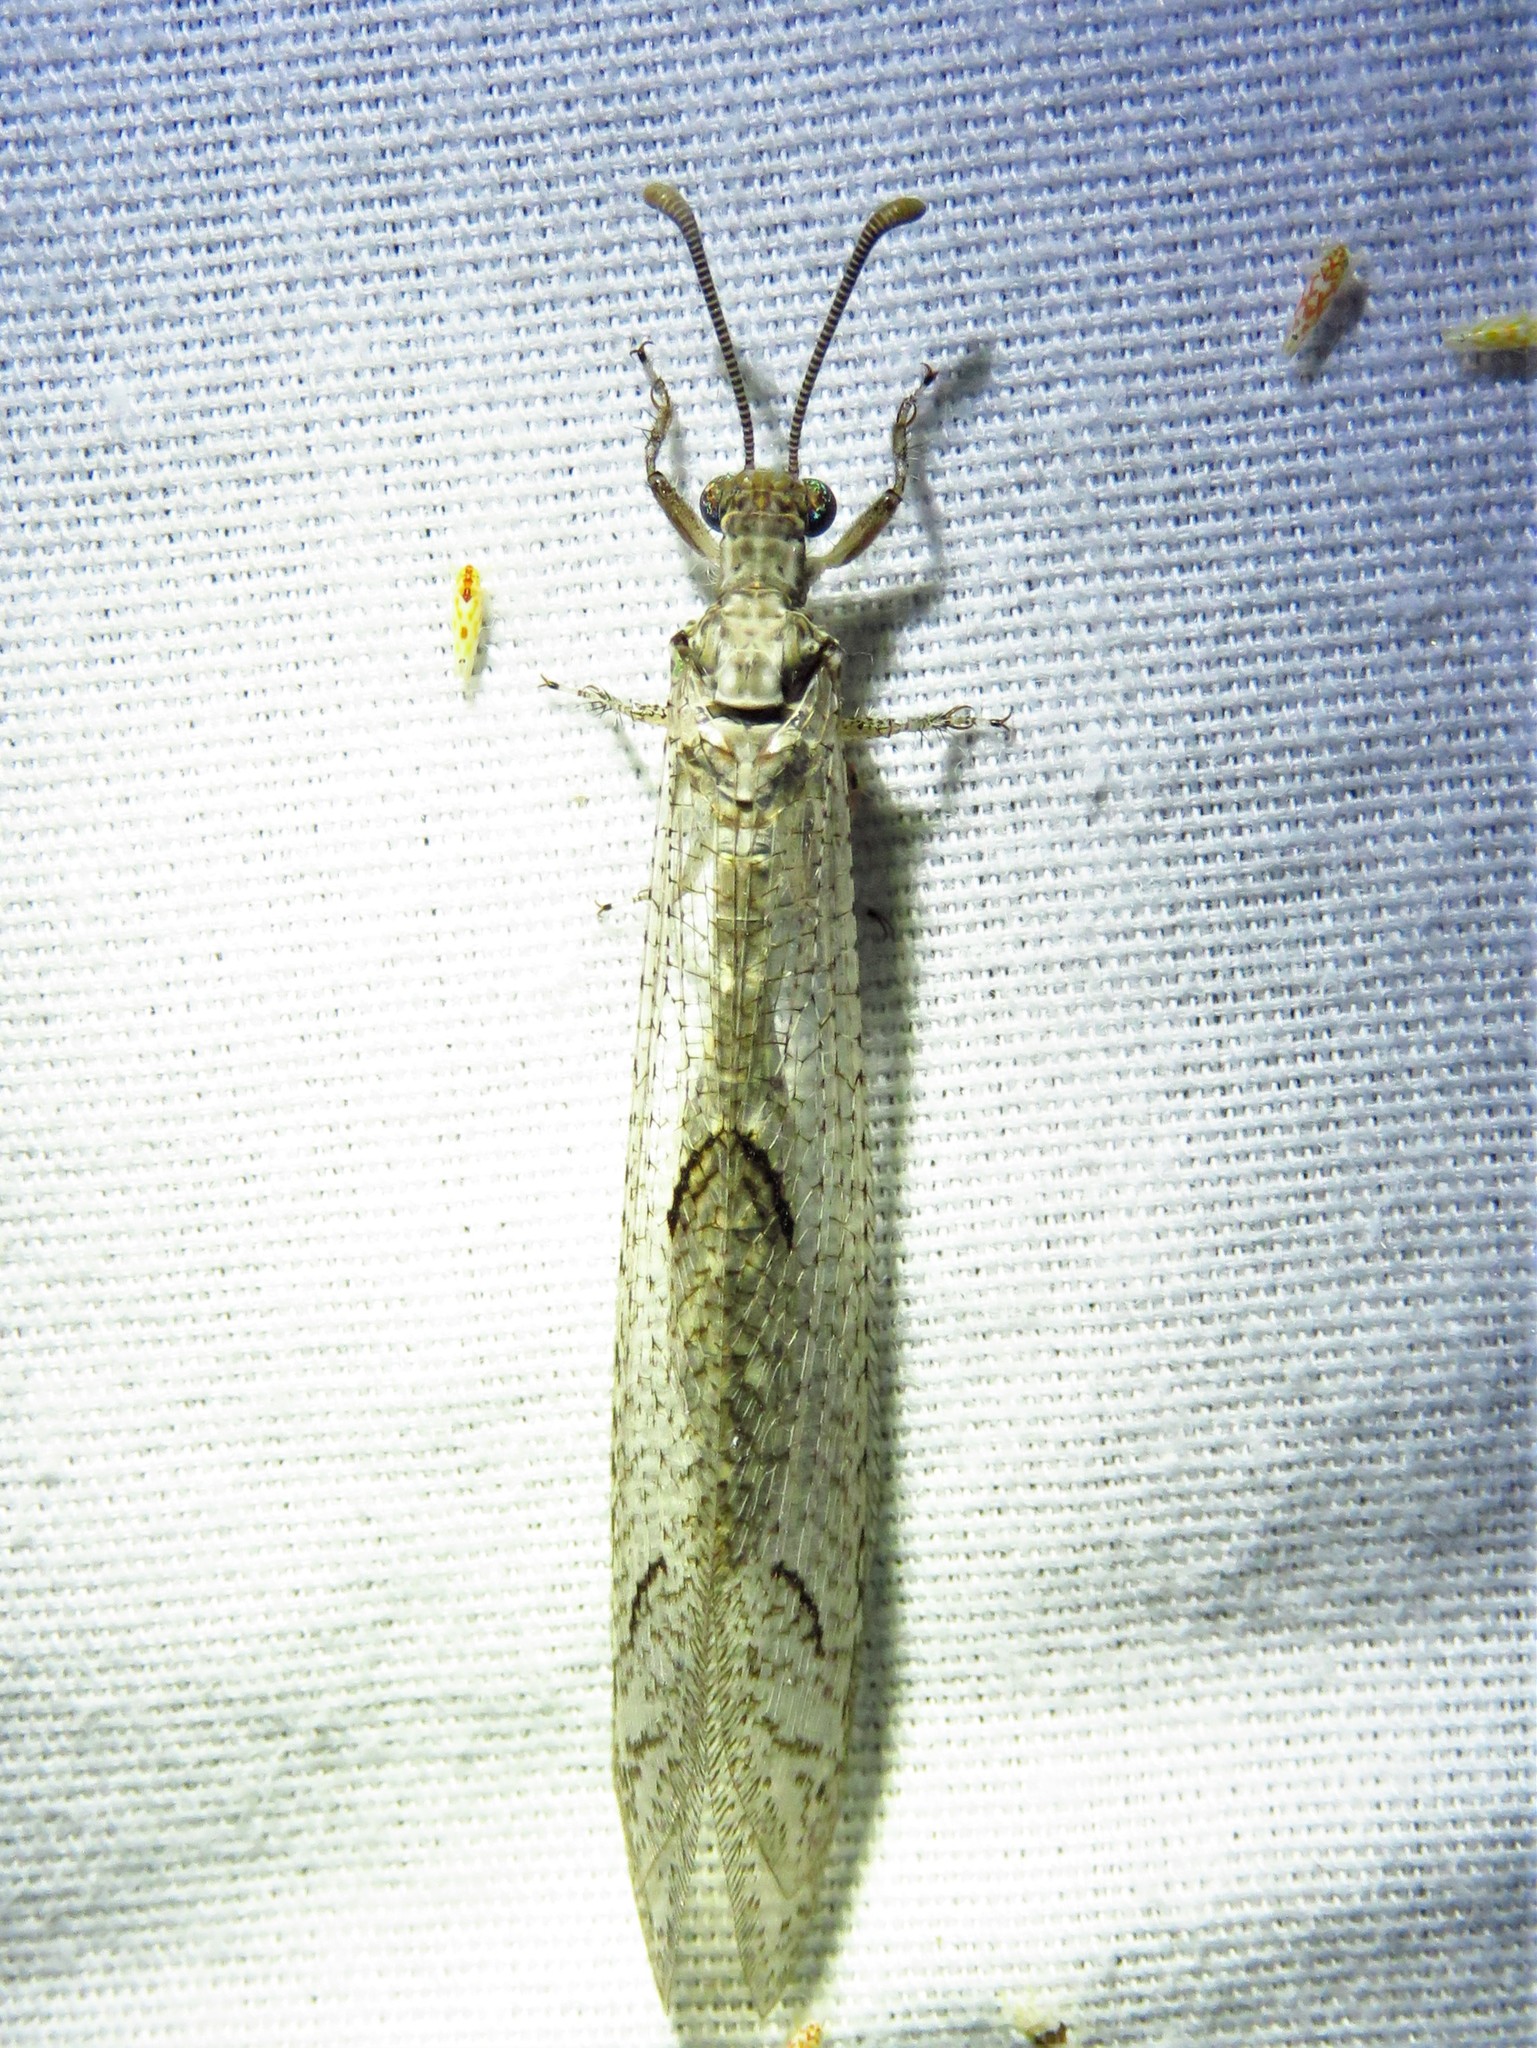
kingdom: Animalia
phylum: Arthropoda
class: Insecta
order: Neuroptera
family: Myrmeleontidae
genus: Euptilon
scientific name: Euptilon ornatum
